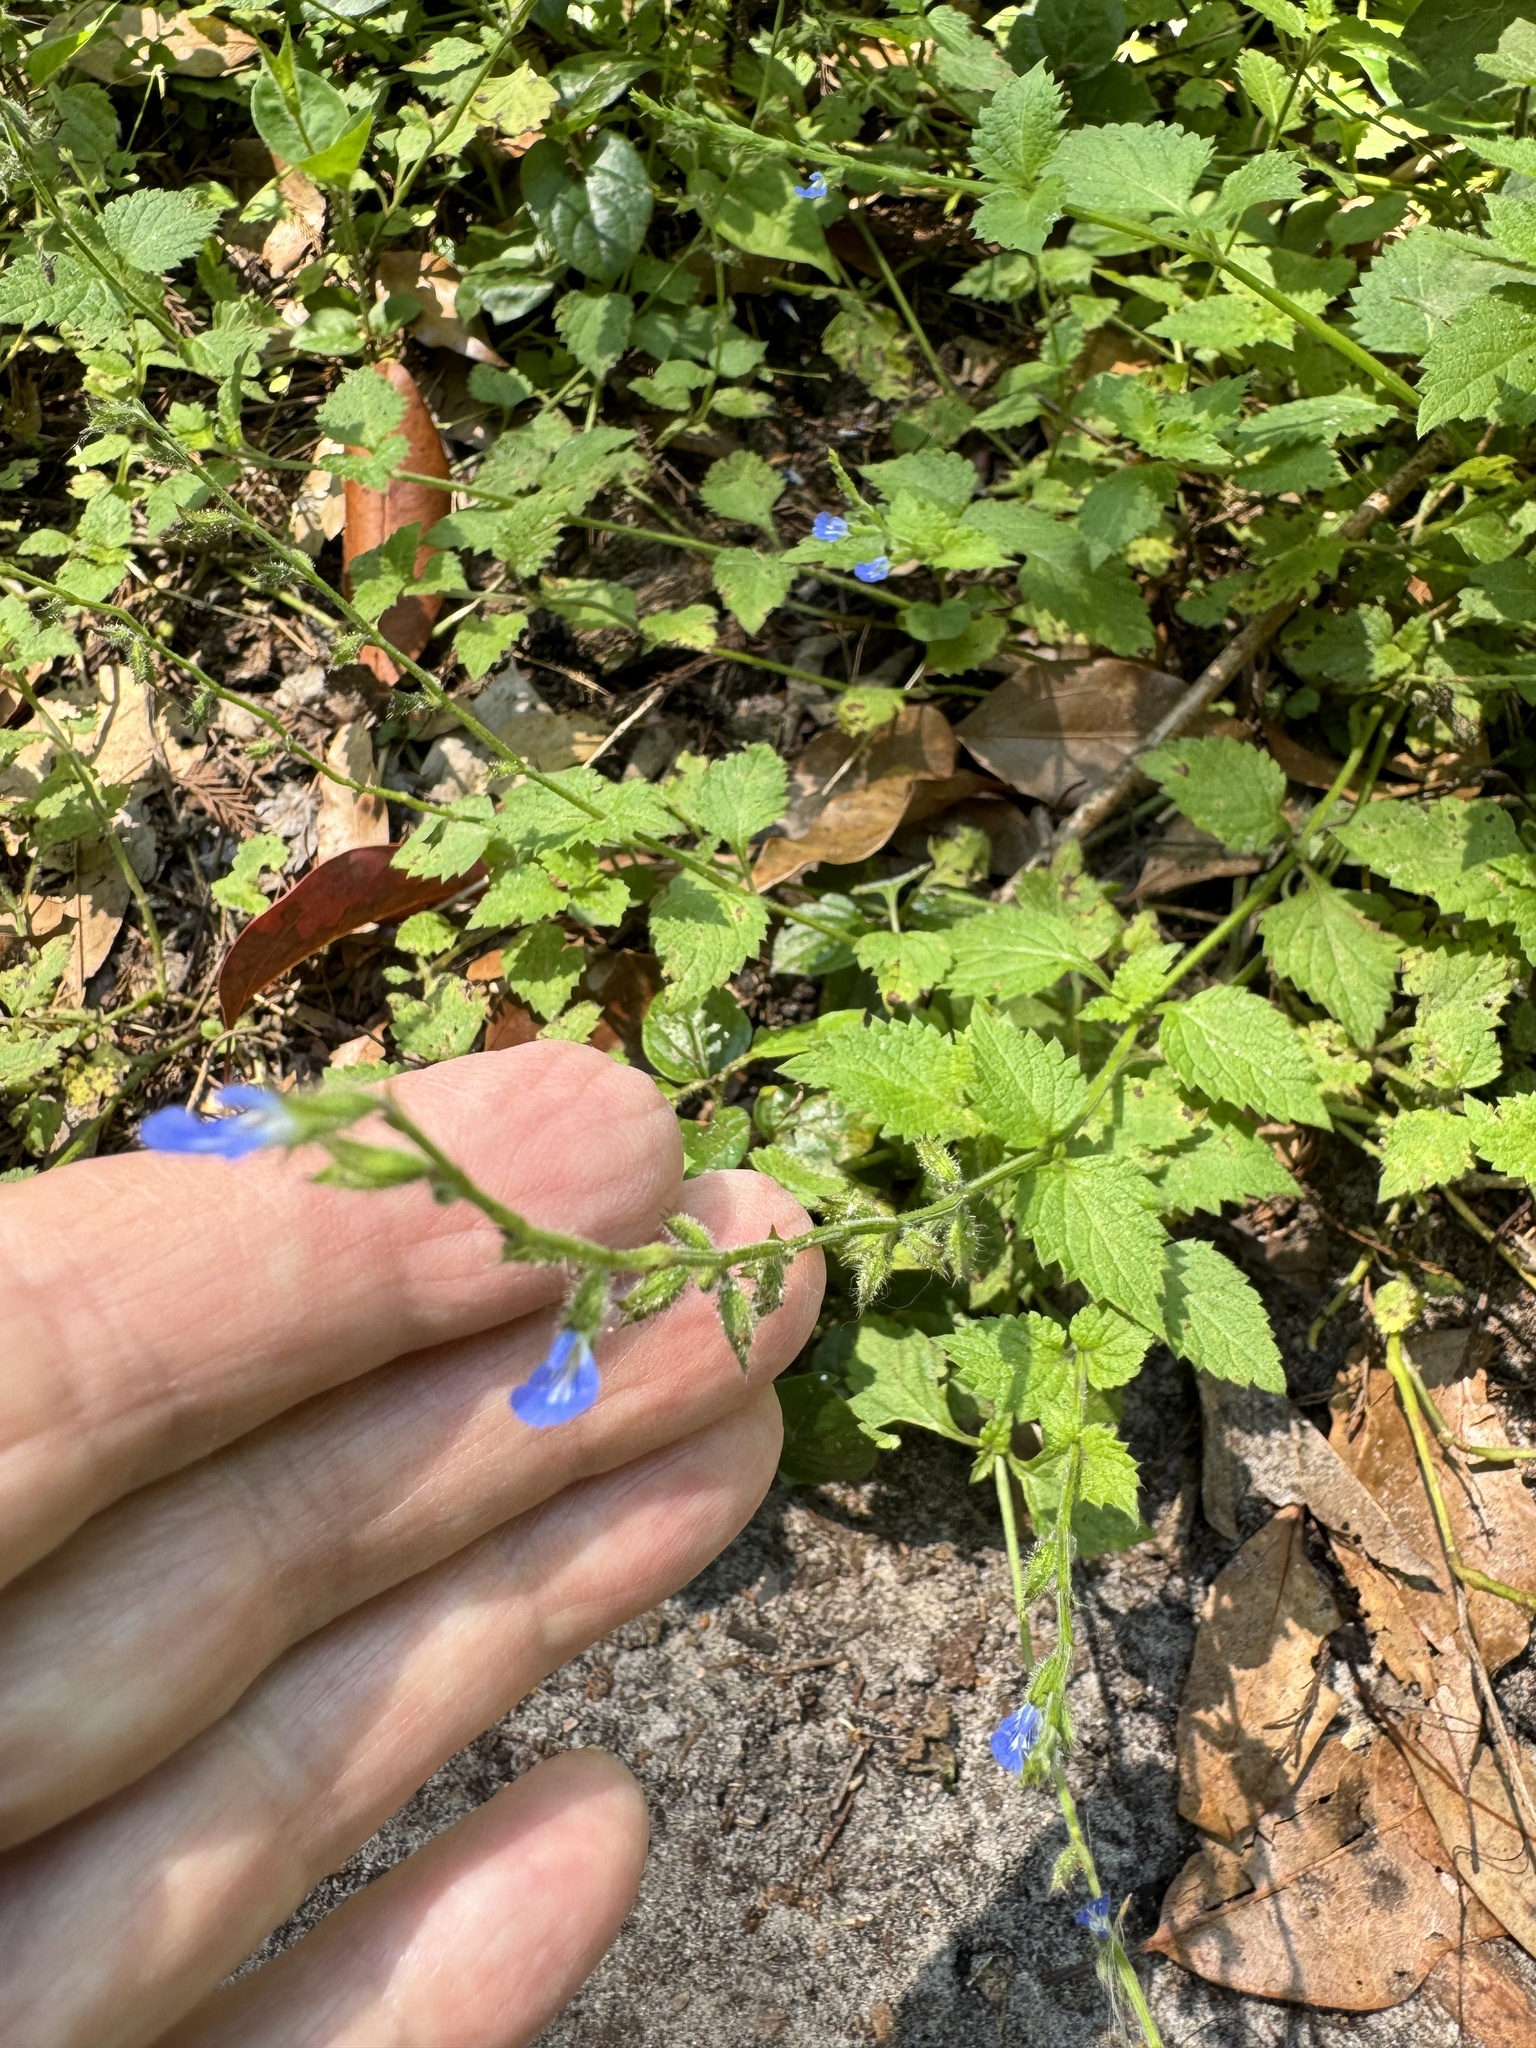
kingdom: Plantae
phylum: Tracheophyta
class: Magnoliopsida
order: Lamiales
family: Lamiaceae
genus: Salvia
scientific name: Salvia misella
